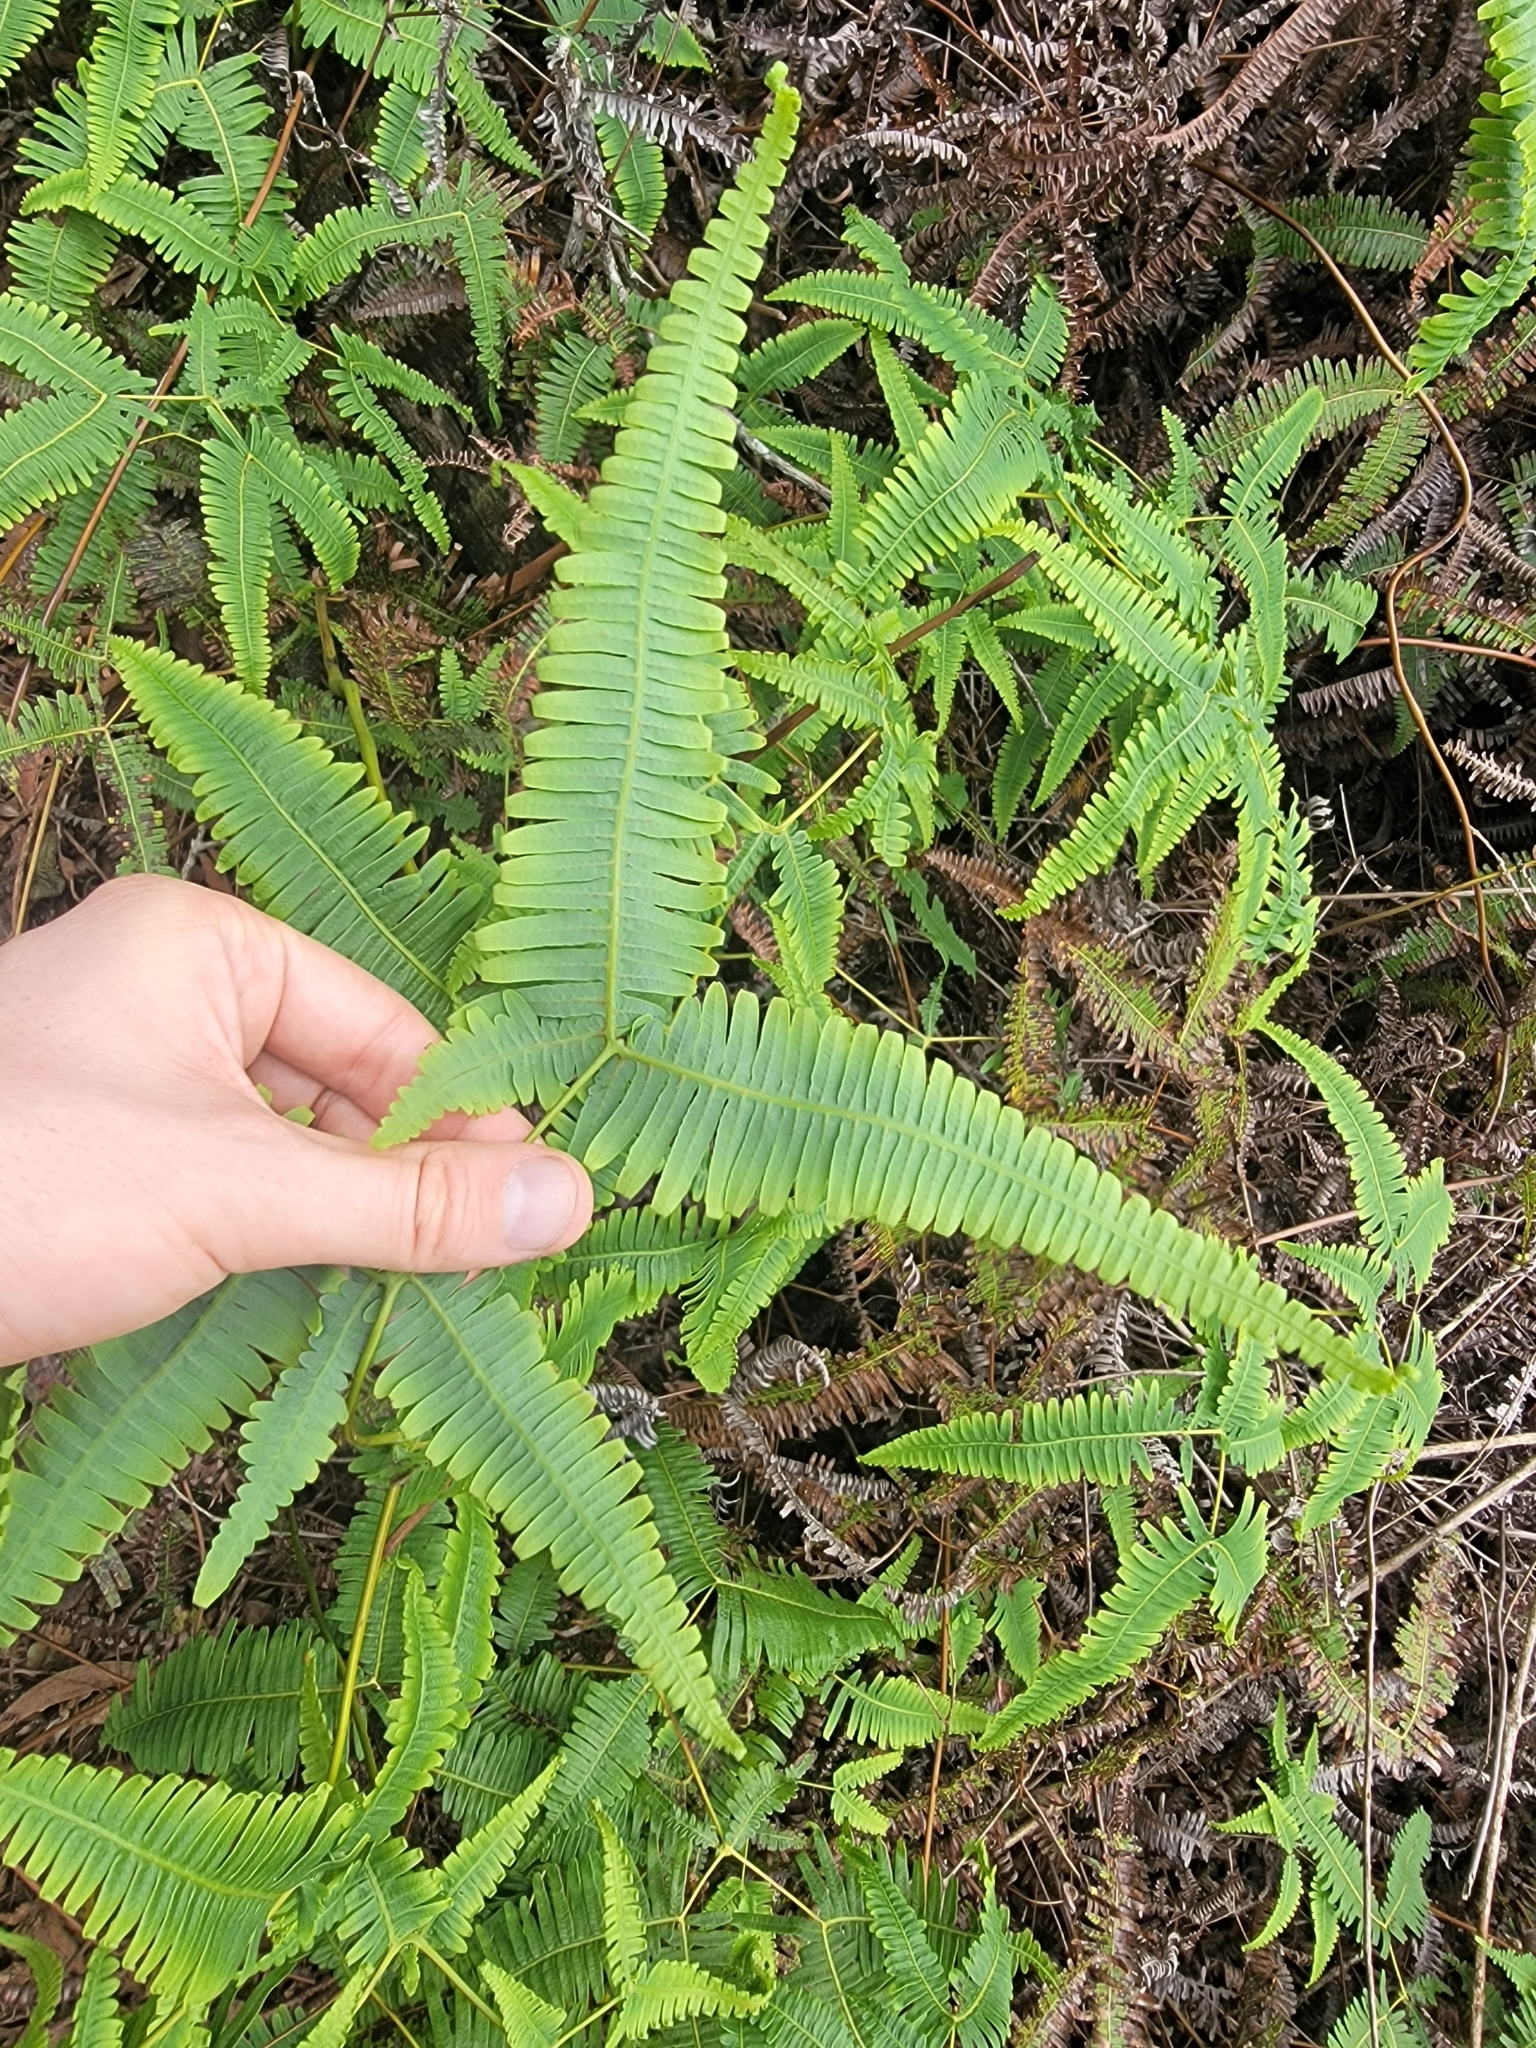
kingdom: Plantae
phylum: Tracheophyta
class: Polypodiopsida
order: Gleicheniales
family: Gleicheniaceae
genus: Dicranopteris
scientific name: Dicranopteris linearis
